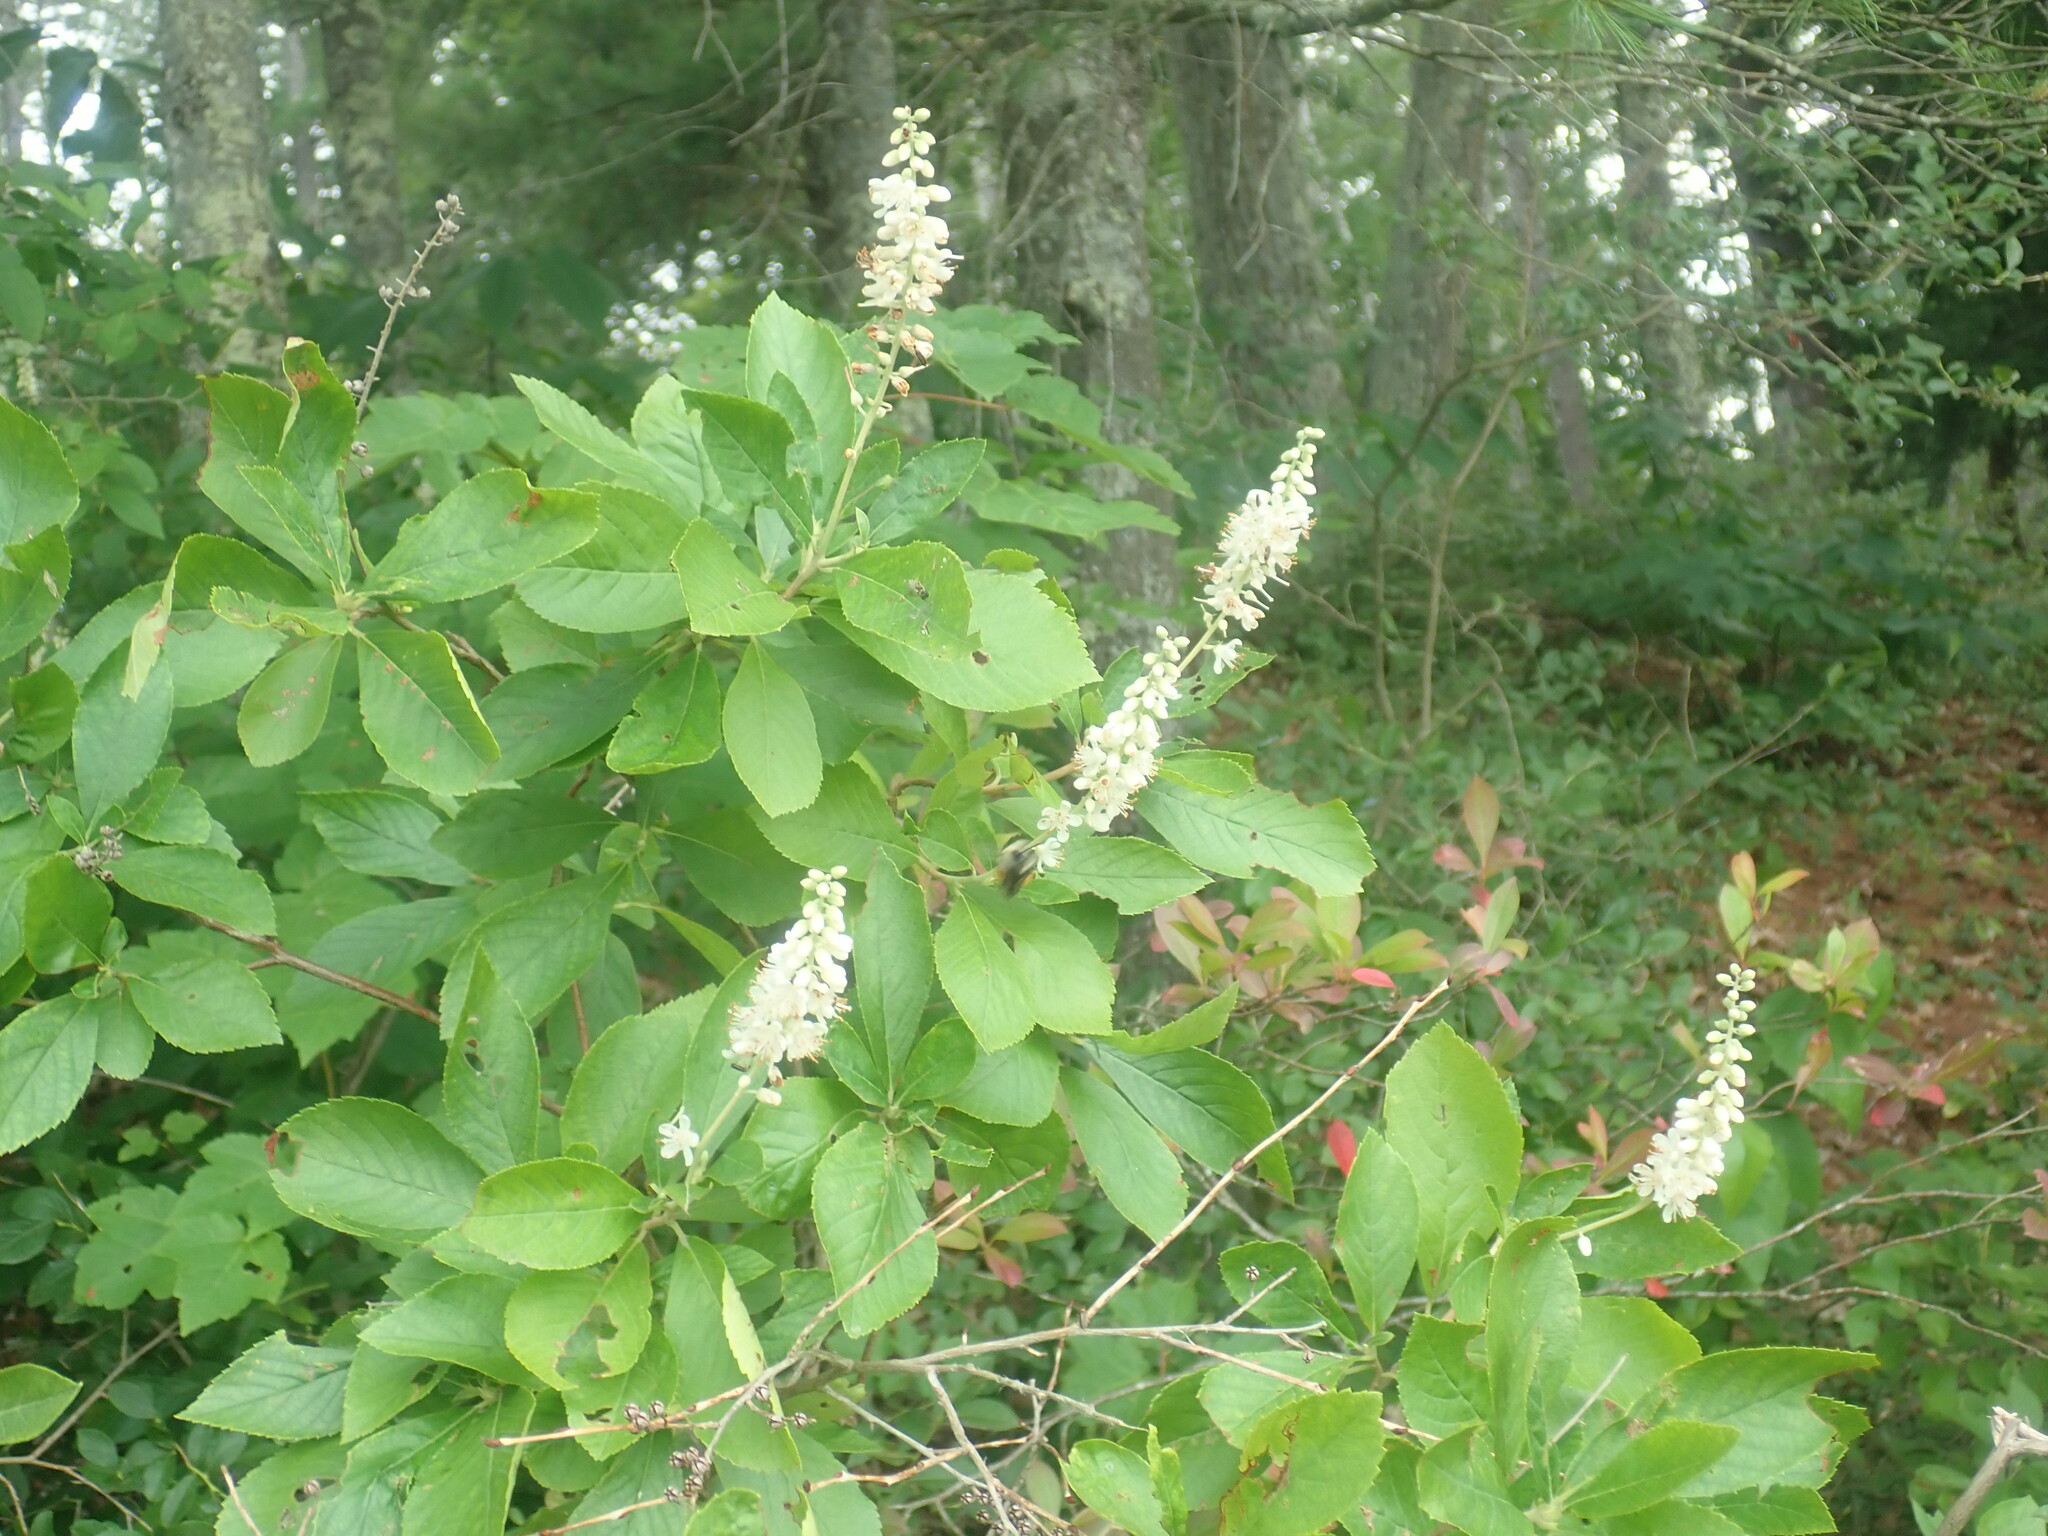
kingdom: Plantae
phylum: Tracheophyta
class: Magnoliopsida
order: Ericales
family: Clethraceae
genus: Clethra
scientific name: Clethra alnifolia
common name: Sweet pepperbush
